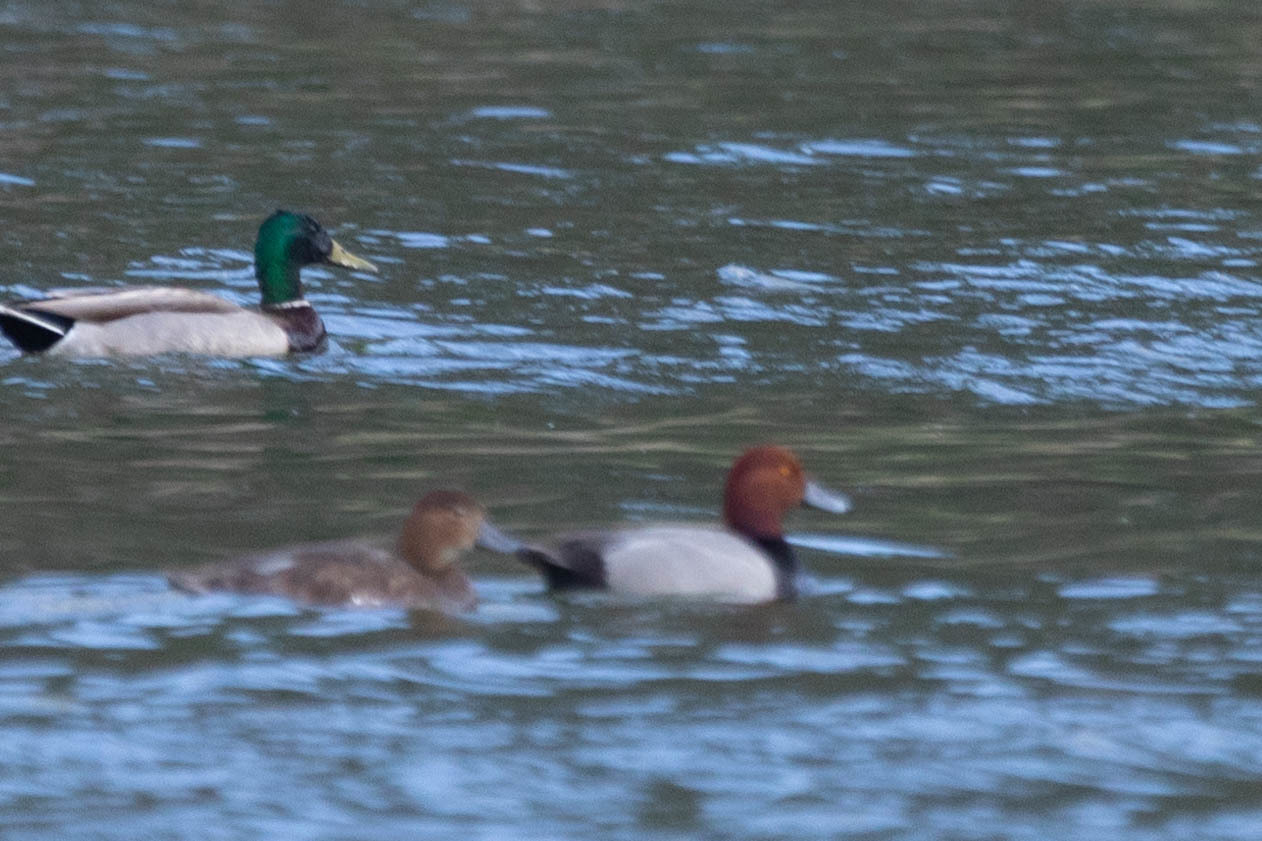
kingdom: Animalia
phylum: Chordata
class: Aves
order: Anseriformes
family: Anatidae
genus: Aythya
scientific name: Aythya americana
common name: Redhead
